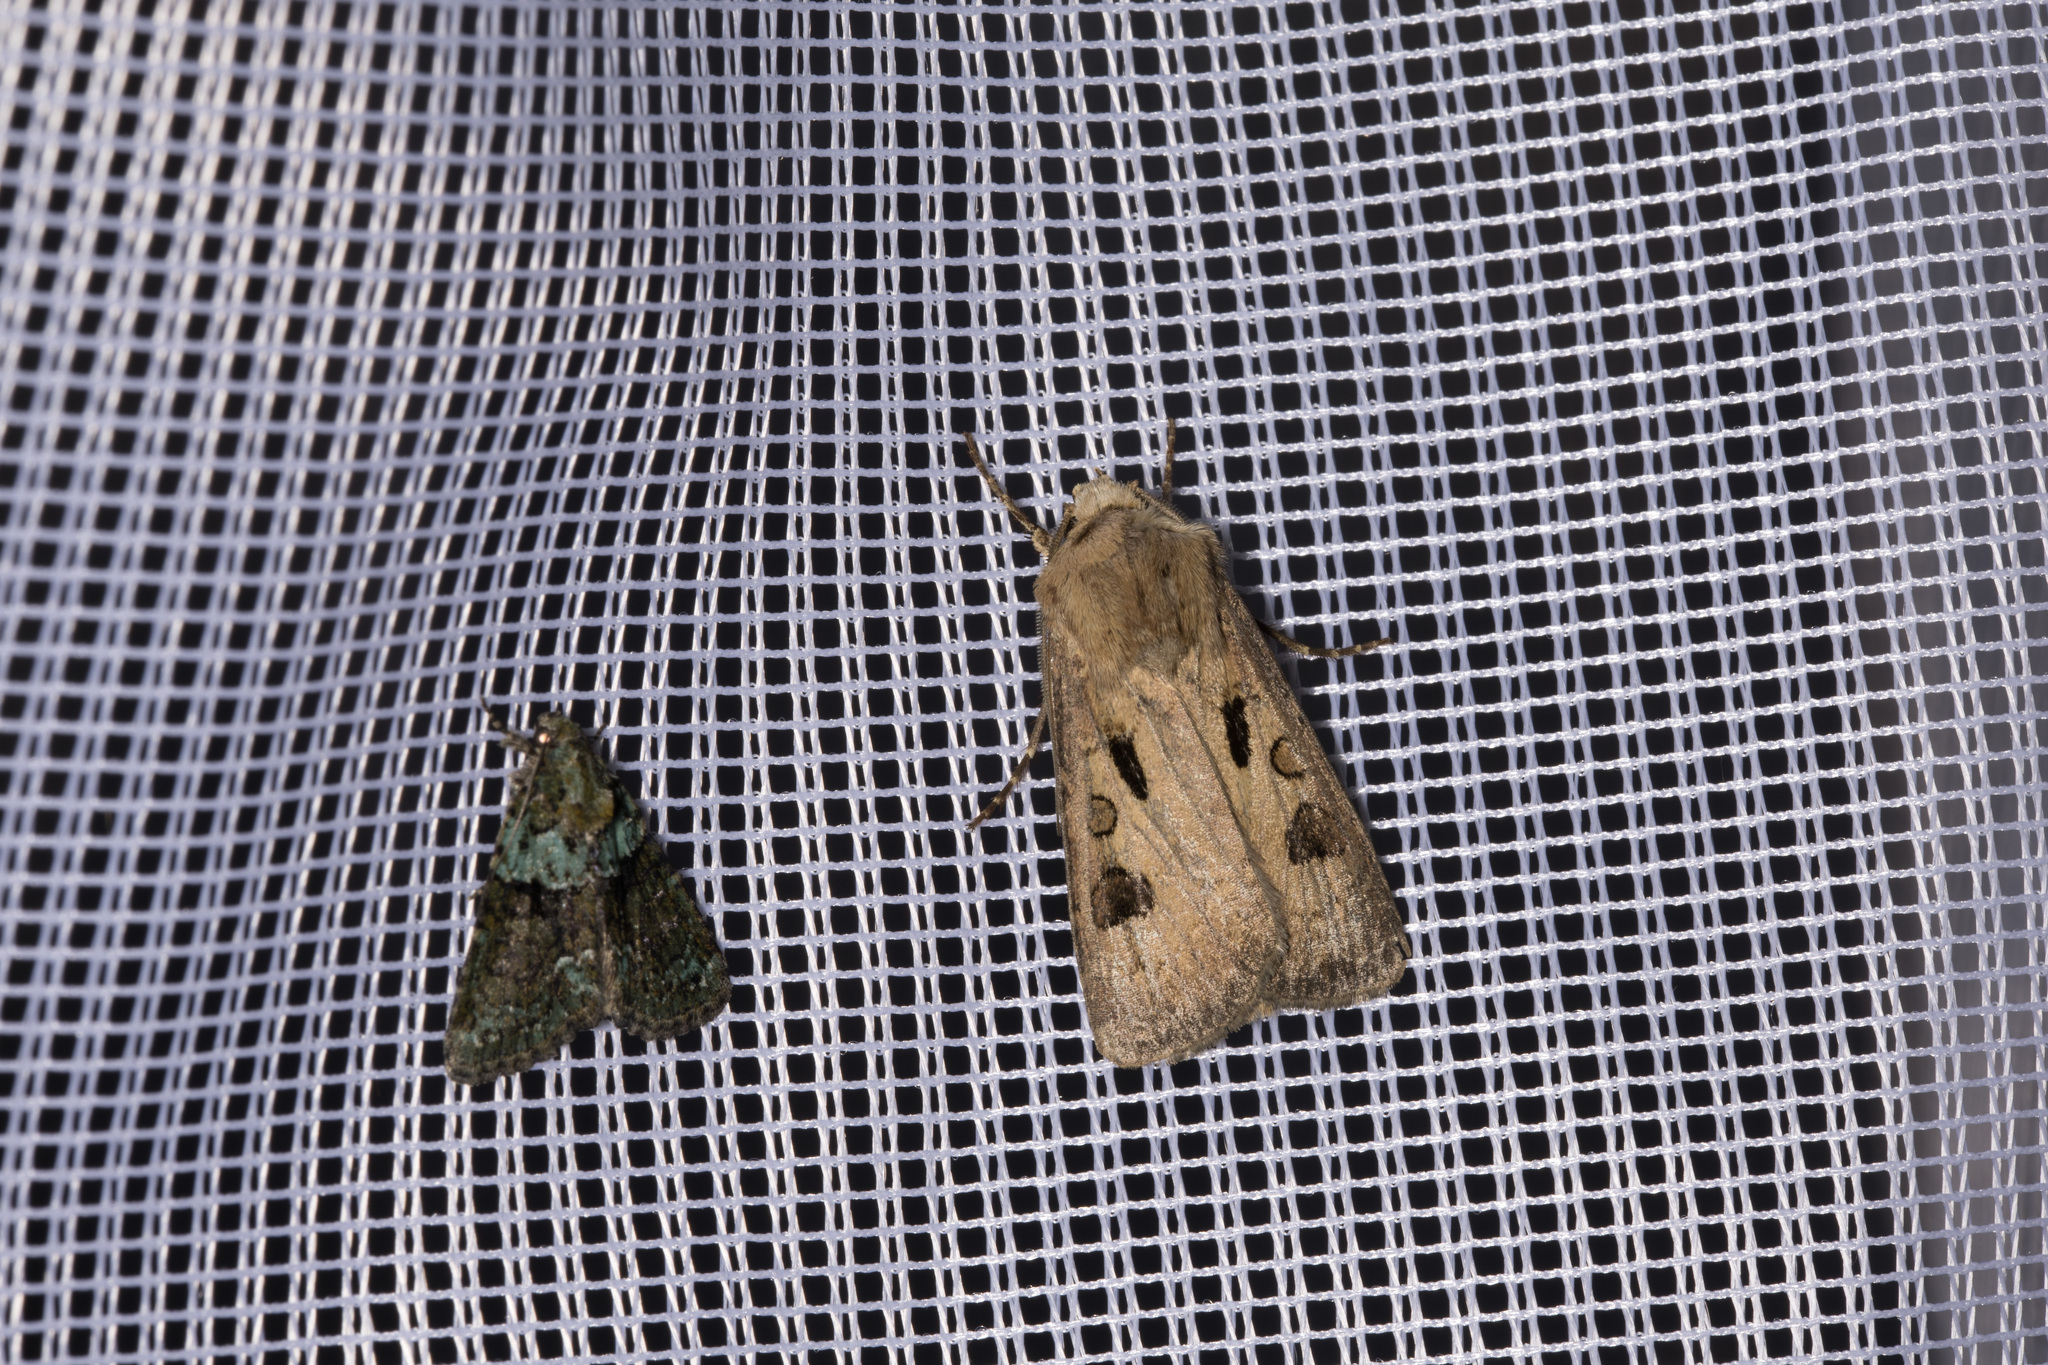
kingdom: Animalia
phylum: Arthropoda
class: Insecta
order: Lepidoptera
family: Noctuidae
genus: Agrotis
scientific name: Agrotis exclamationis
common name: Heart and dart
